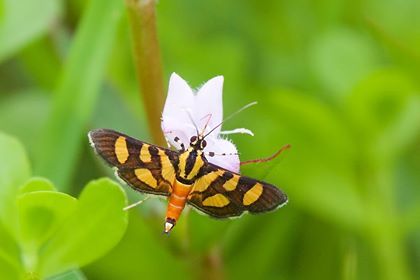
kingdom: Animalia
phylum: Arthropoda
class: Insecta
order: Lepidoptera
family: Crambidae
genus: Syngamia
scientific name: Syngamia florella
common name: Orange-spotted flower moth
